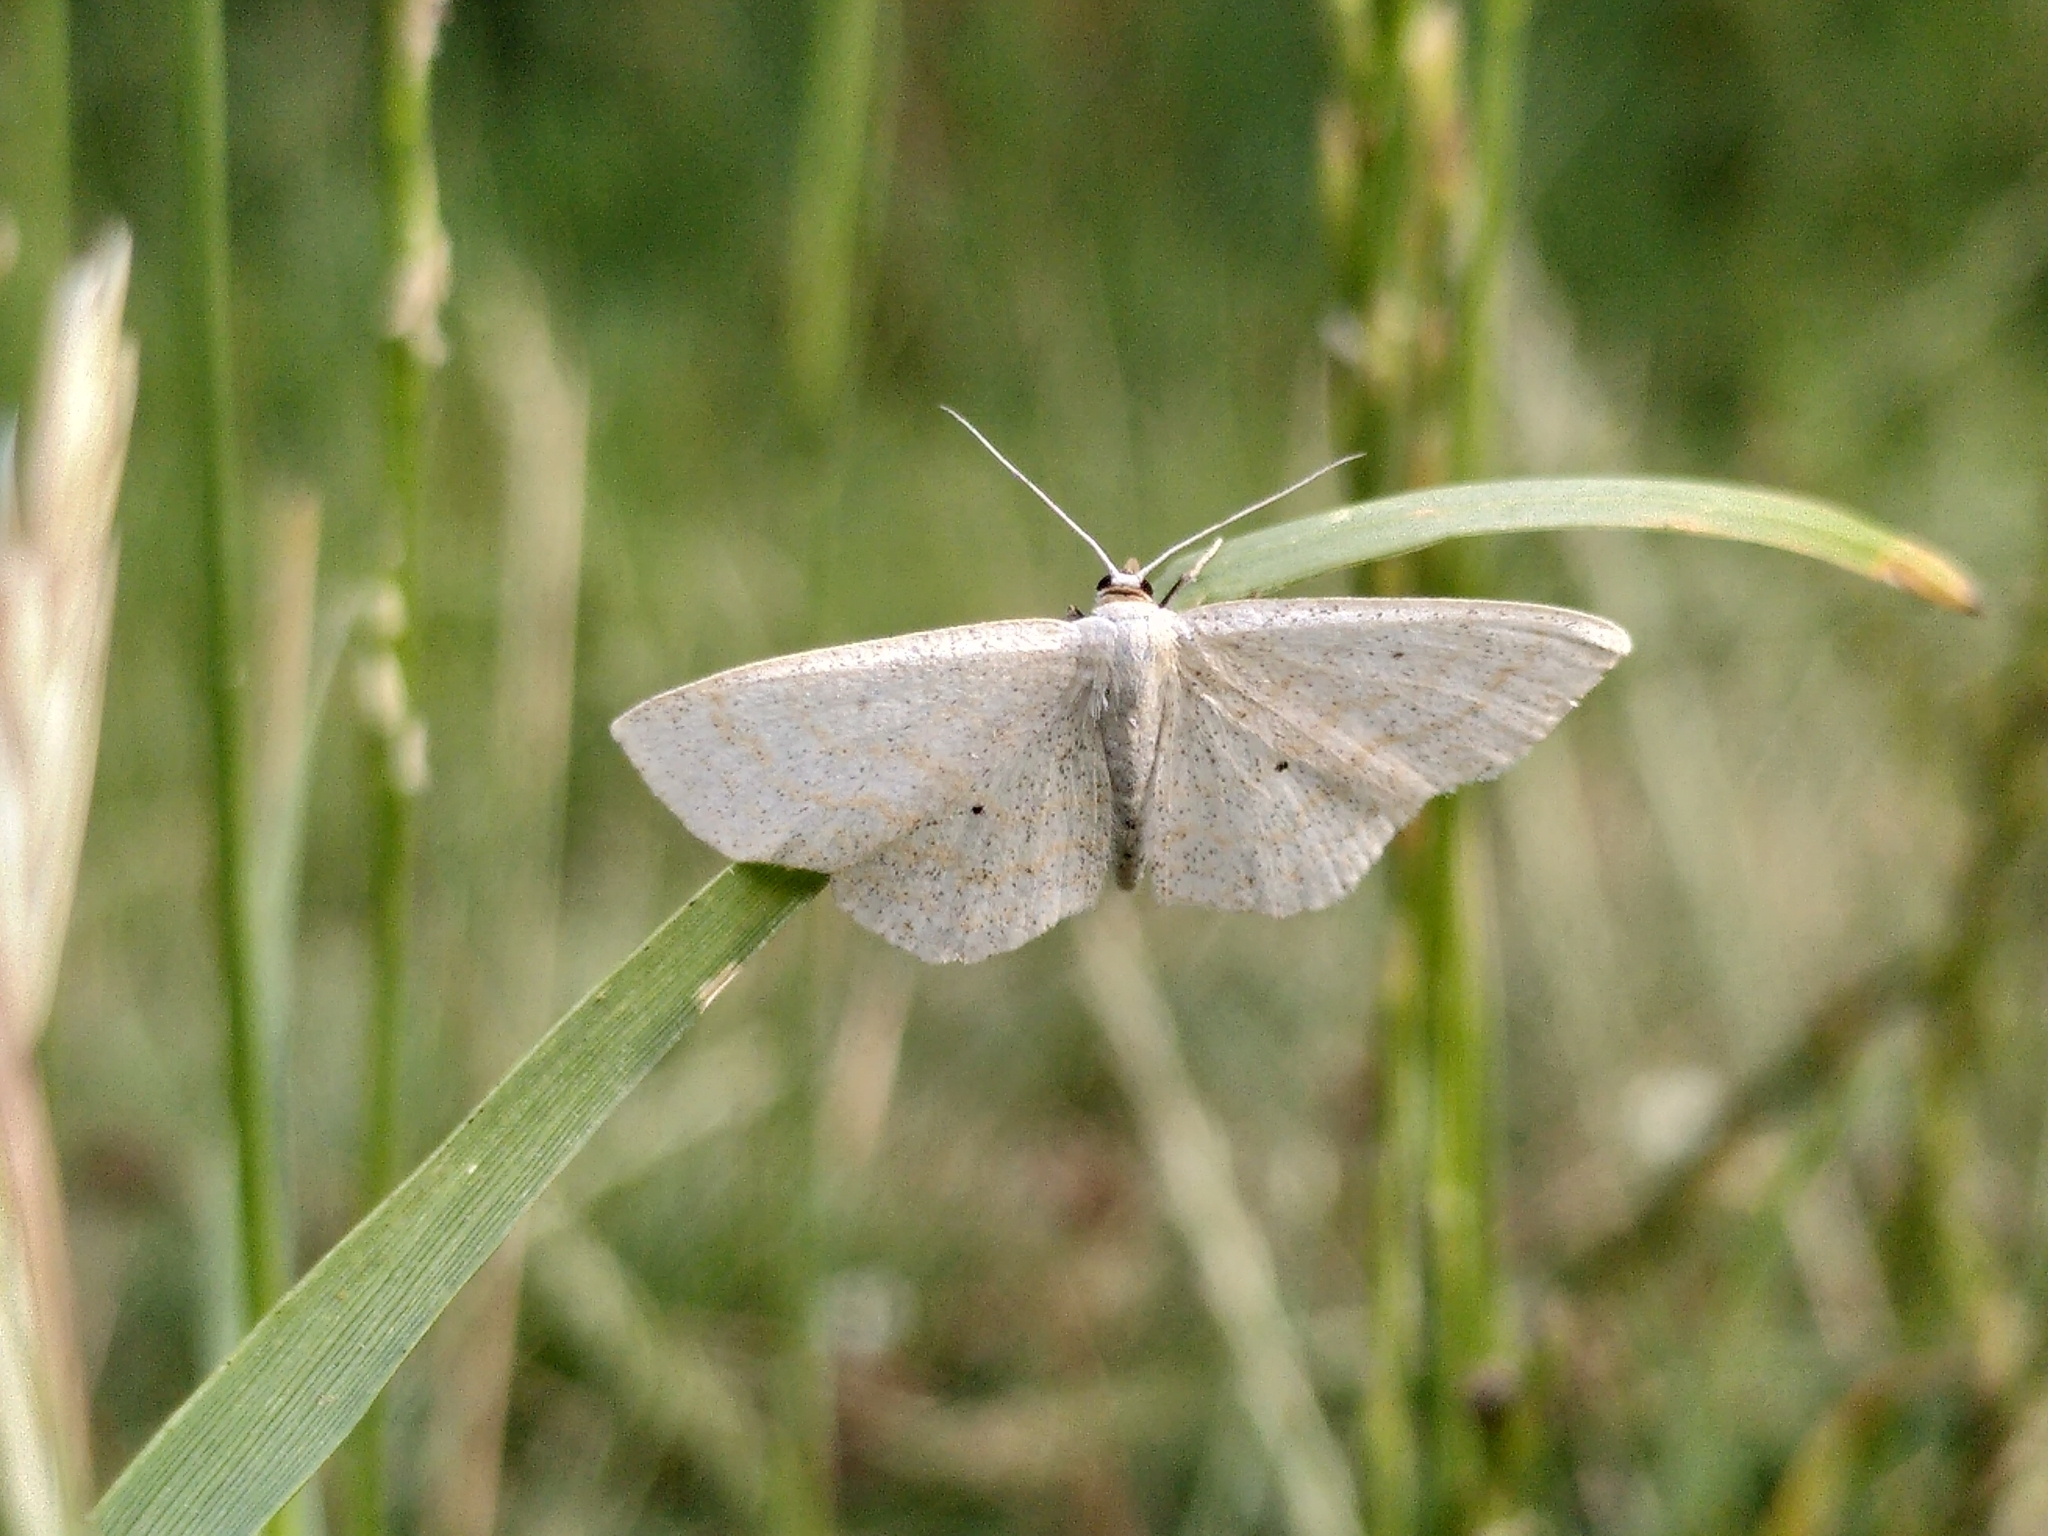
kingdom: Animalia
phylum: Arthropoda
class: Insecta
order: Lepidoptera
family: Geometridae
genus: Scopula
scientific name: Scopula immutata
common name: Lesser cream wave
